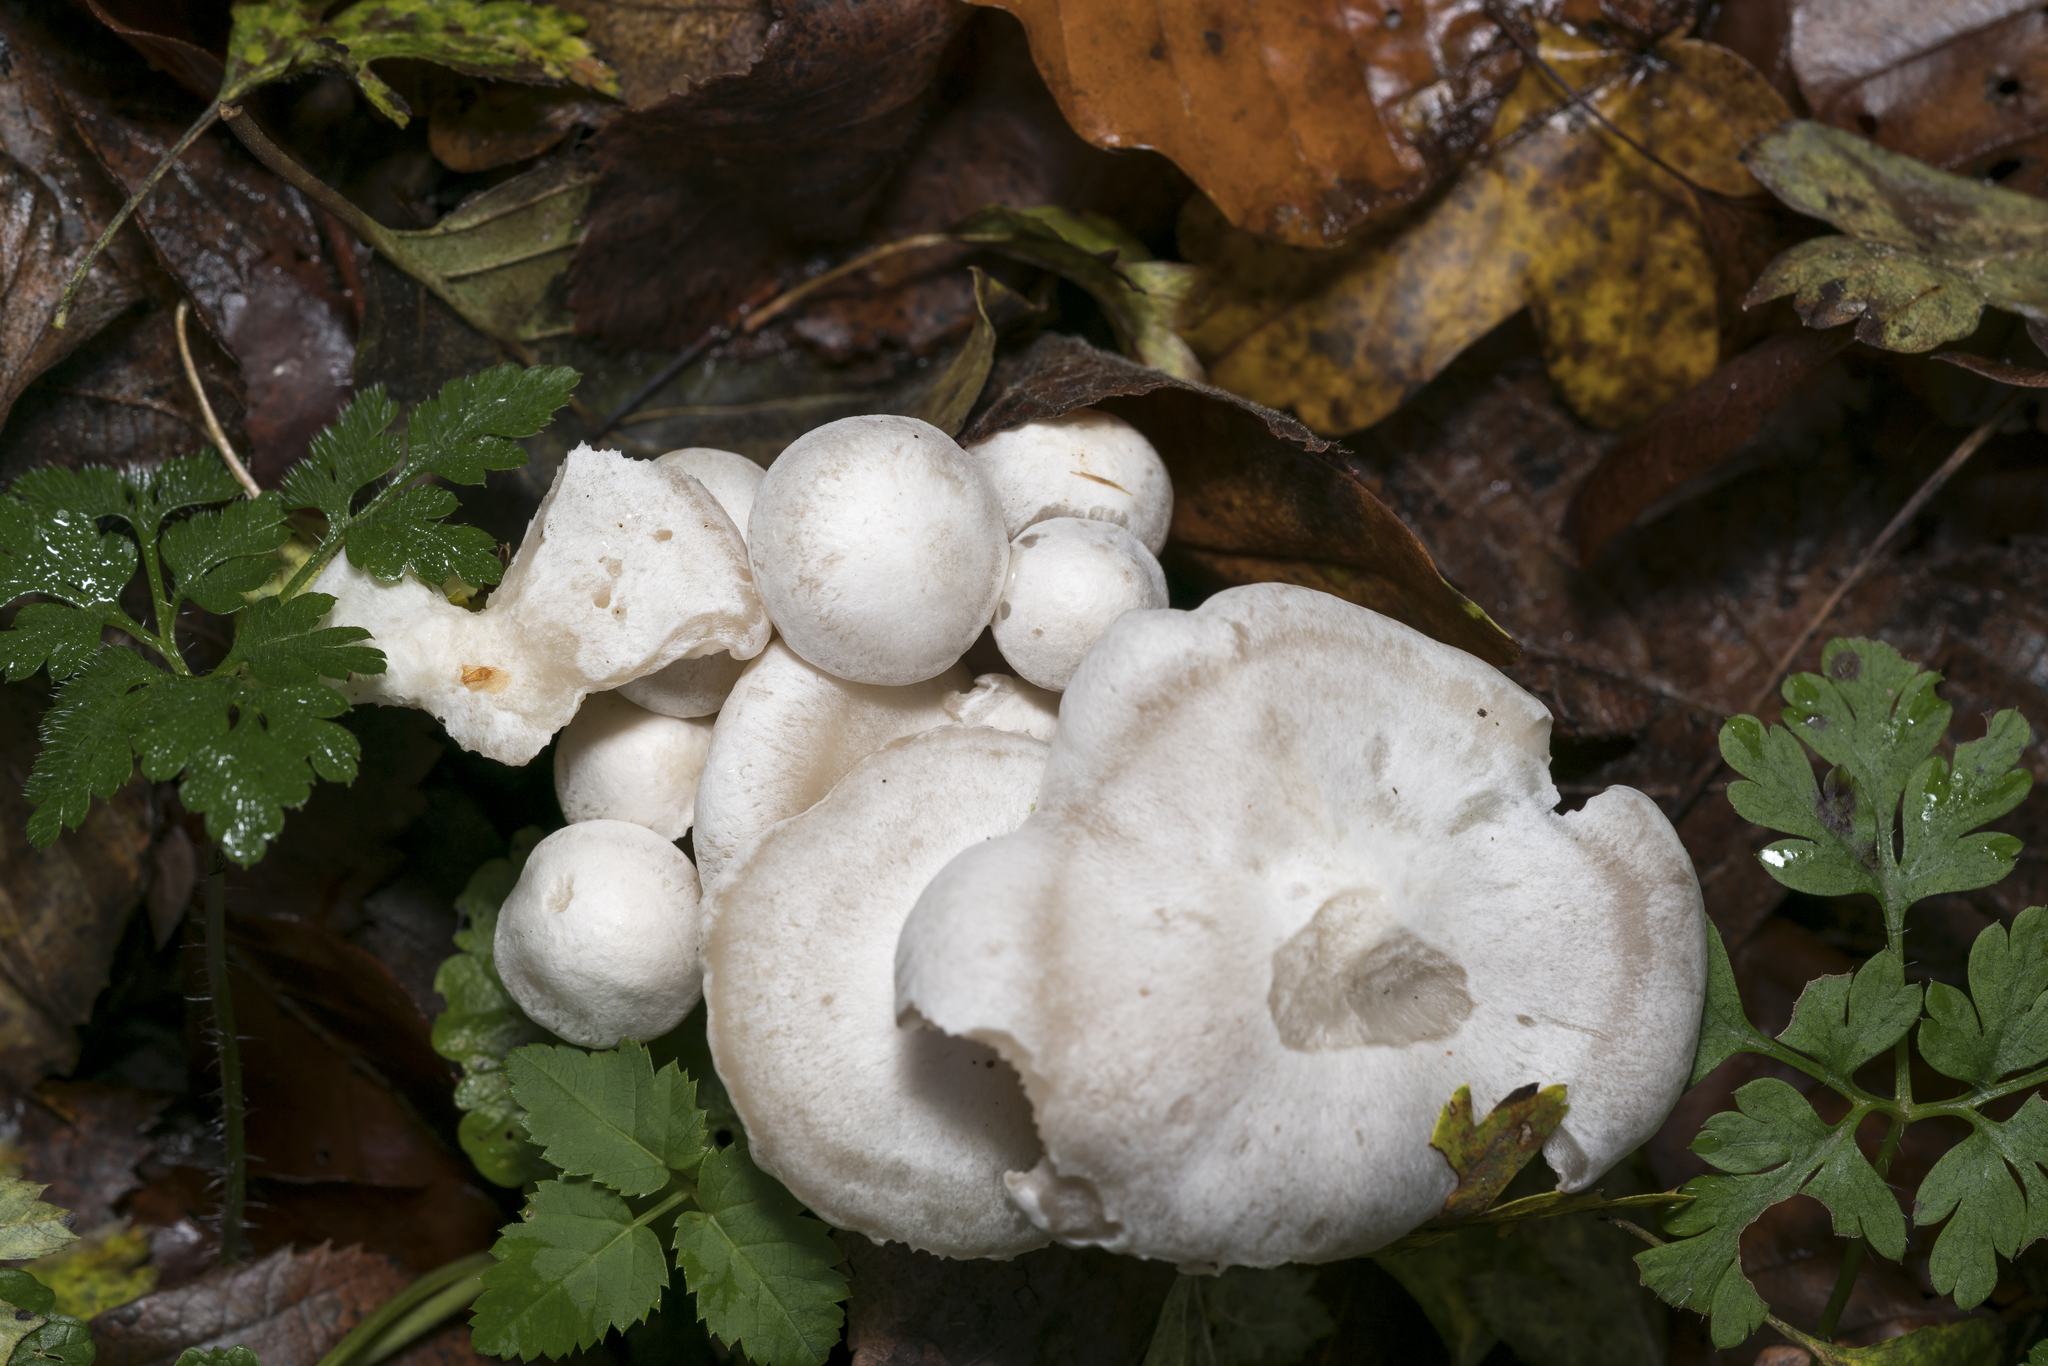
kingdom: Fungi
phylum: Basidiomycota
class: Agaricomycetes
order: Agaricales
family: Tricholomataceae
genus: Leucocybe
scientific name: Leucocybe connata
